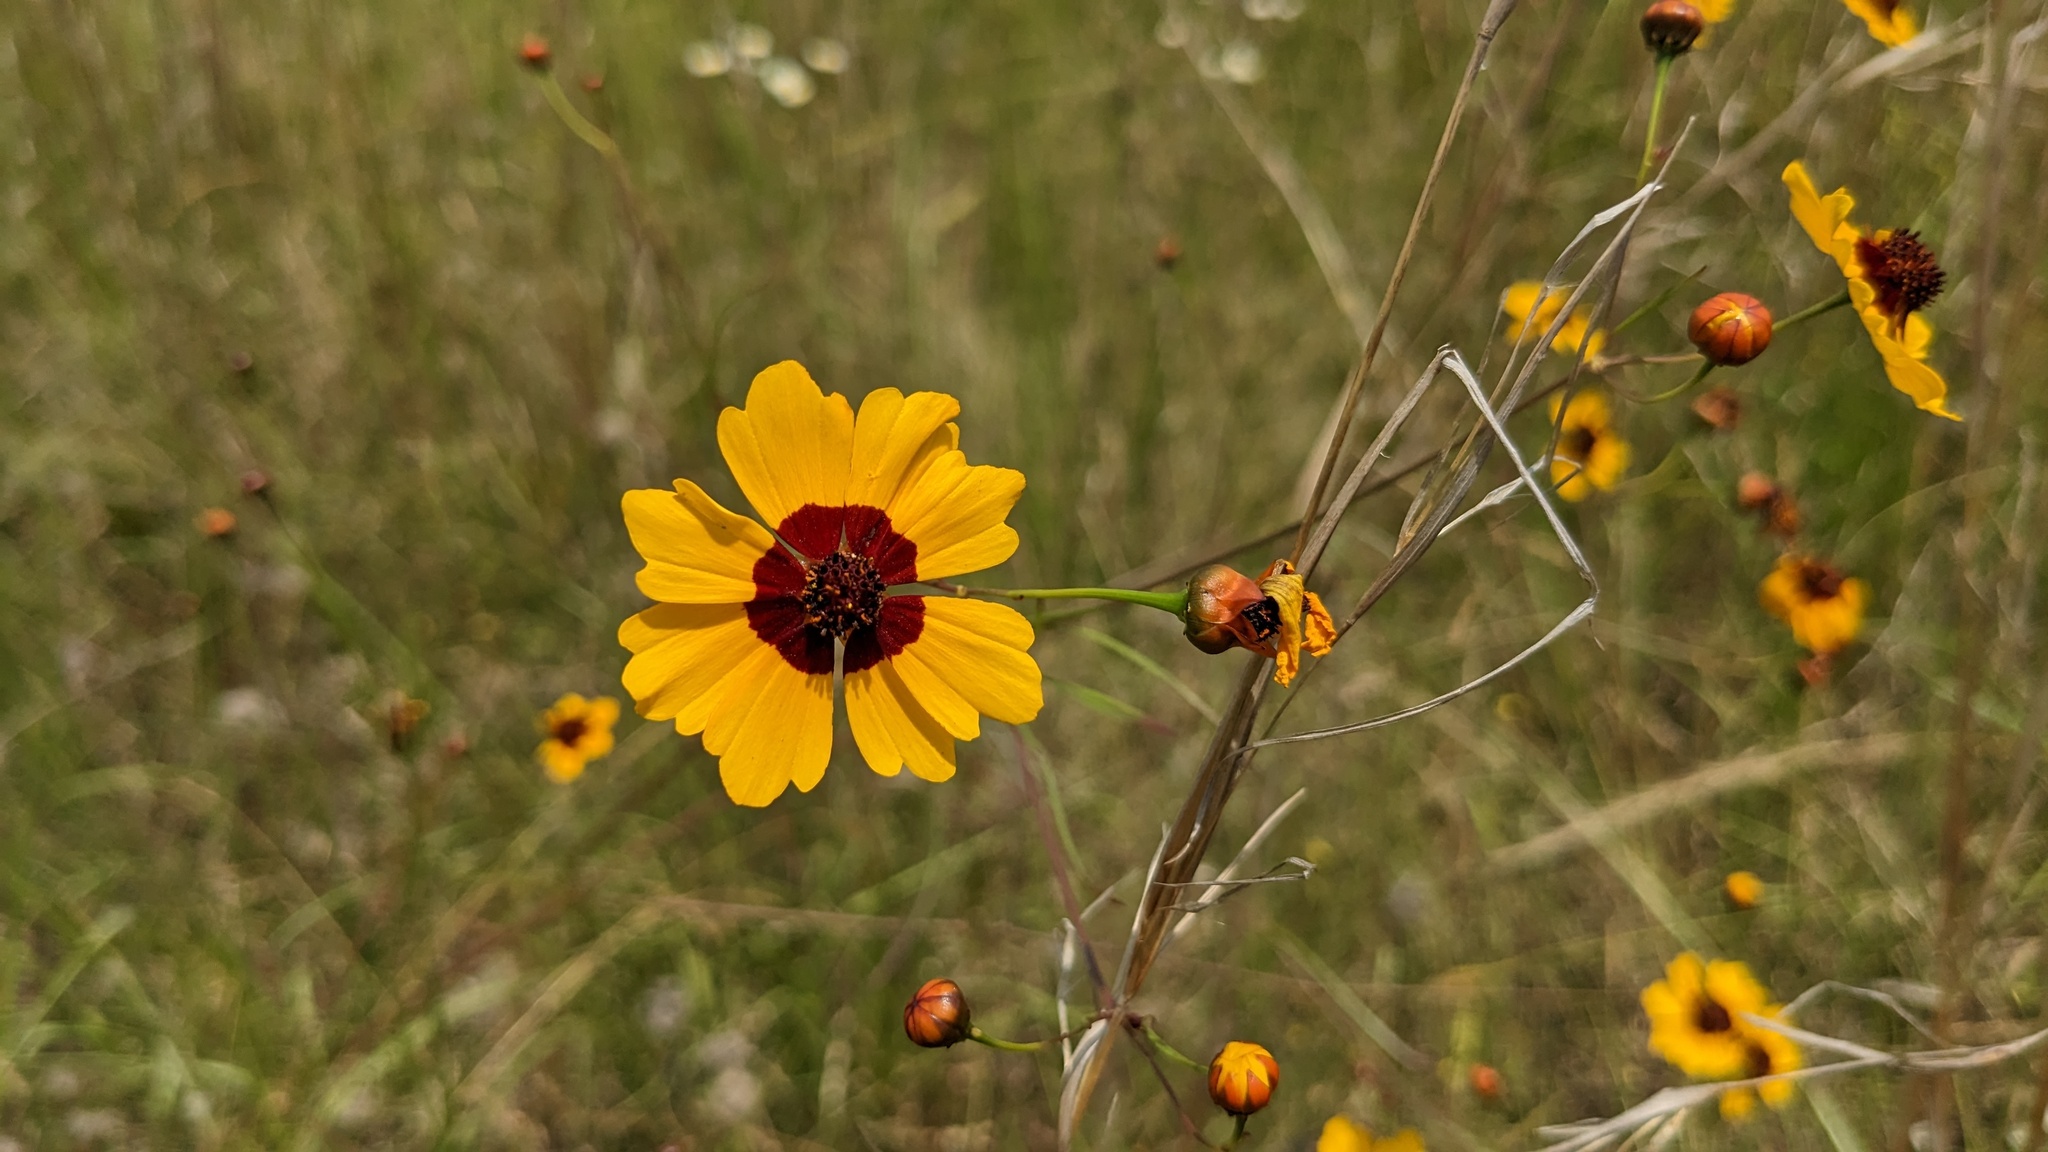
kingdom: Plantae
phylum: Tracheophyta
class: Magnoliopsida
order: Asterales
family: Asteraceae
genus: Coreopsis
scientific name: Coreopsis tinctoria
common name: Garden tickseed
